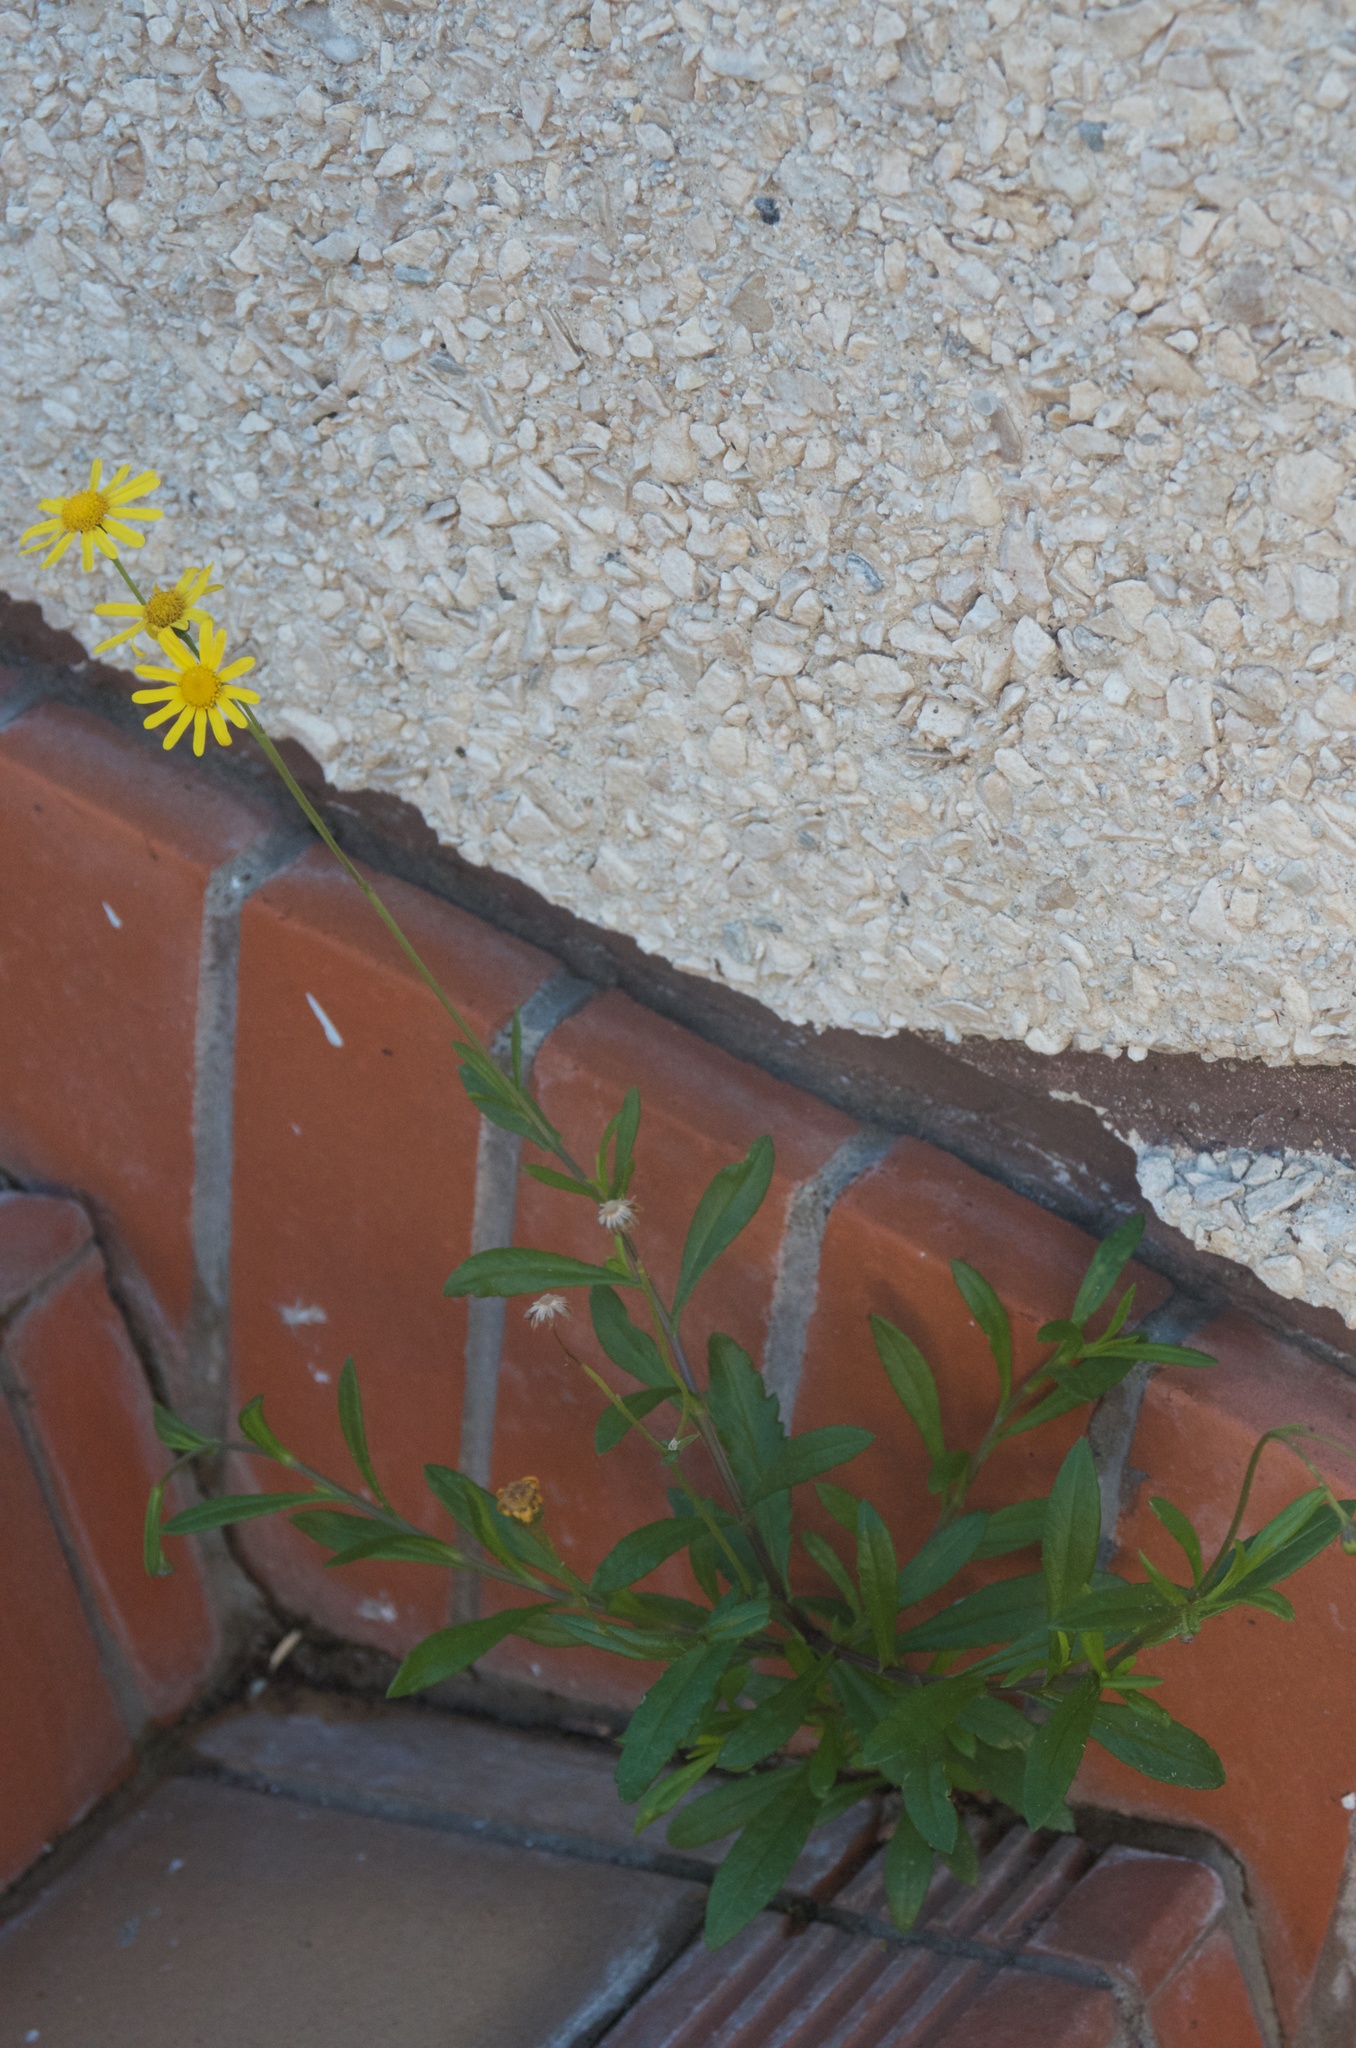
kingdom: Plantae
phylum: Tracheophyta
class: Magnoliopsida
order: Asterales
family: Asteraceae
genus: Senecio
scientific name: Senecio skirrhodon
